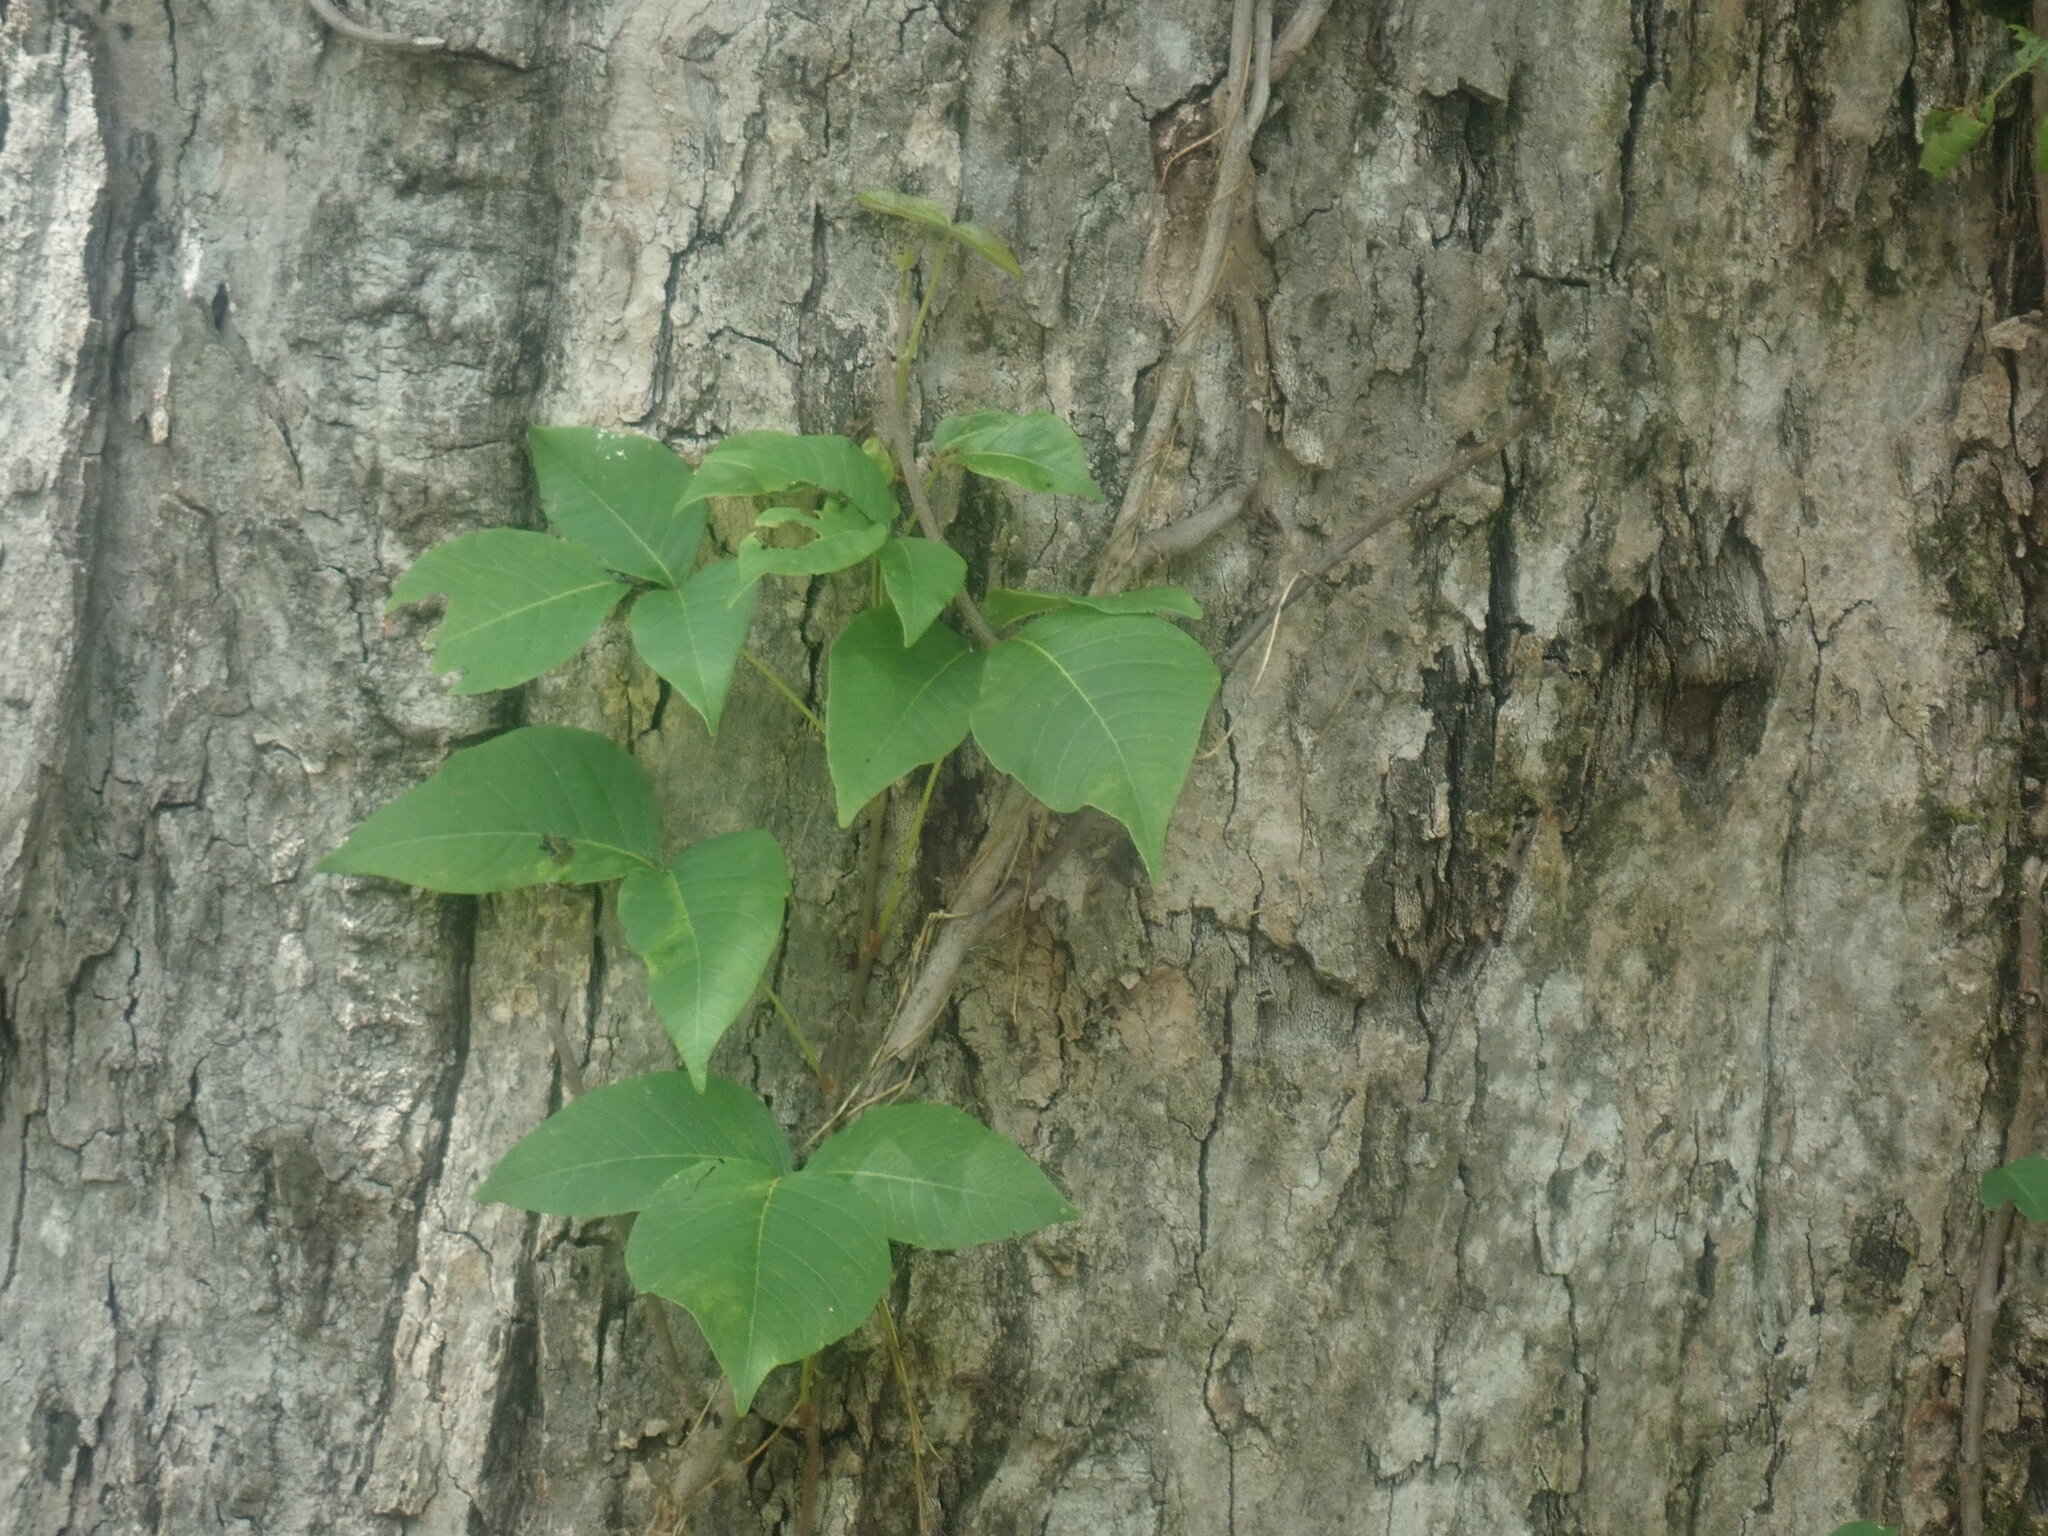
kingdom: Plantae
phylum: Tracheophyta
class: Magnoliopsida
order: Sapindales
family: Anacardiaceae
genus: Toxicodendron
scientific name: Toxicodendron radicans
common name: Poison ivy
